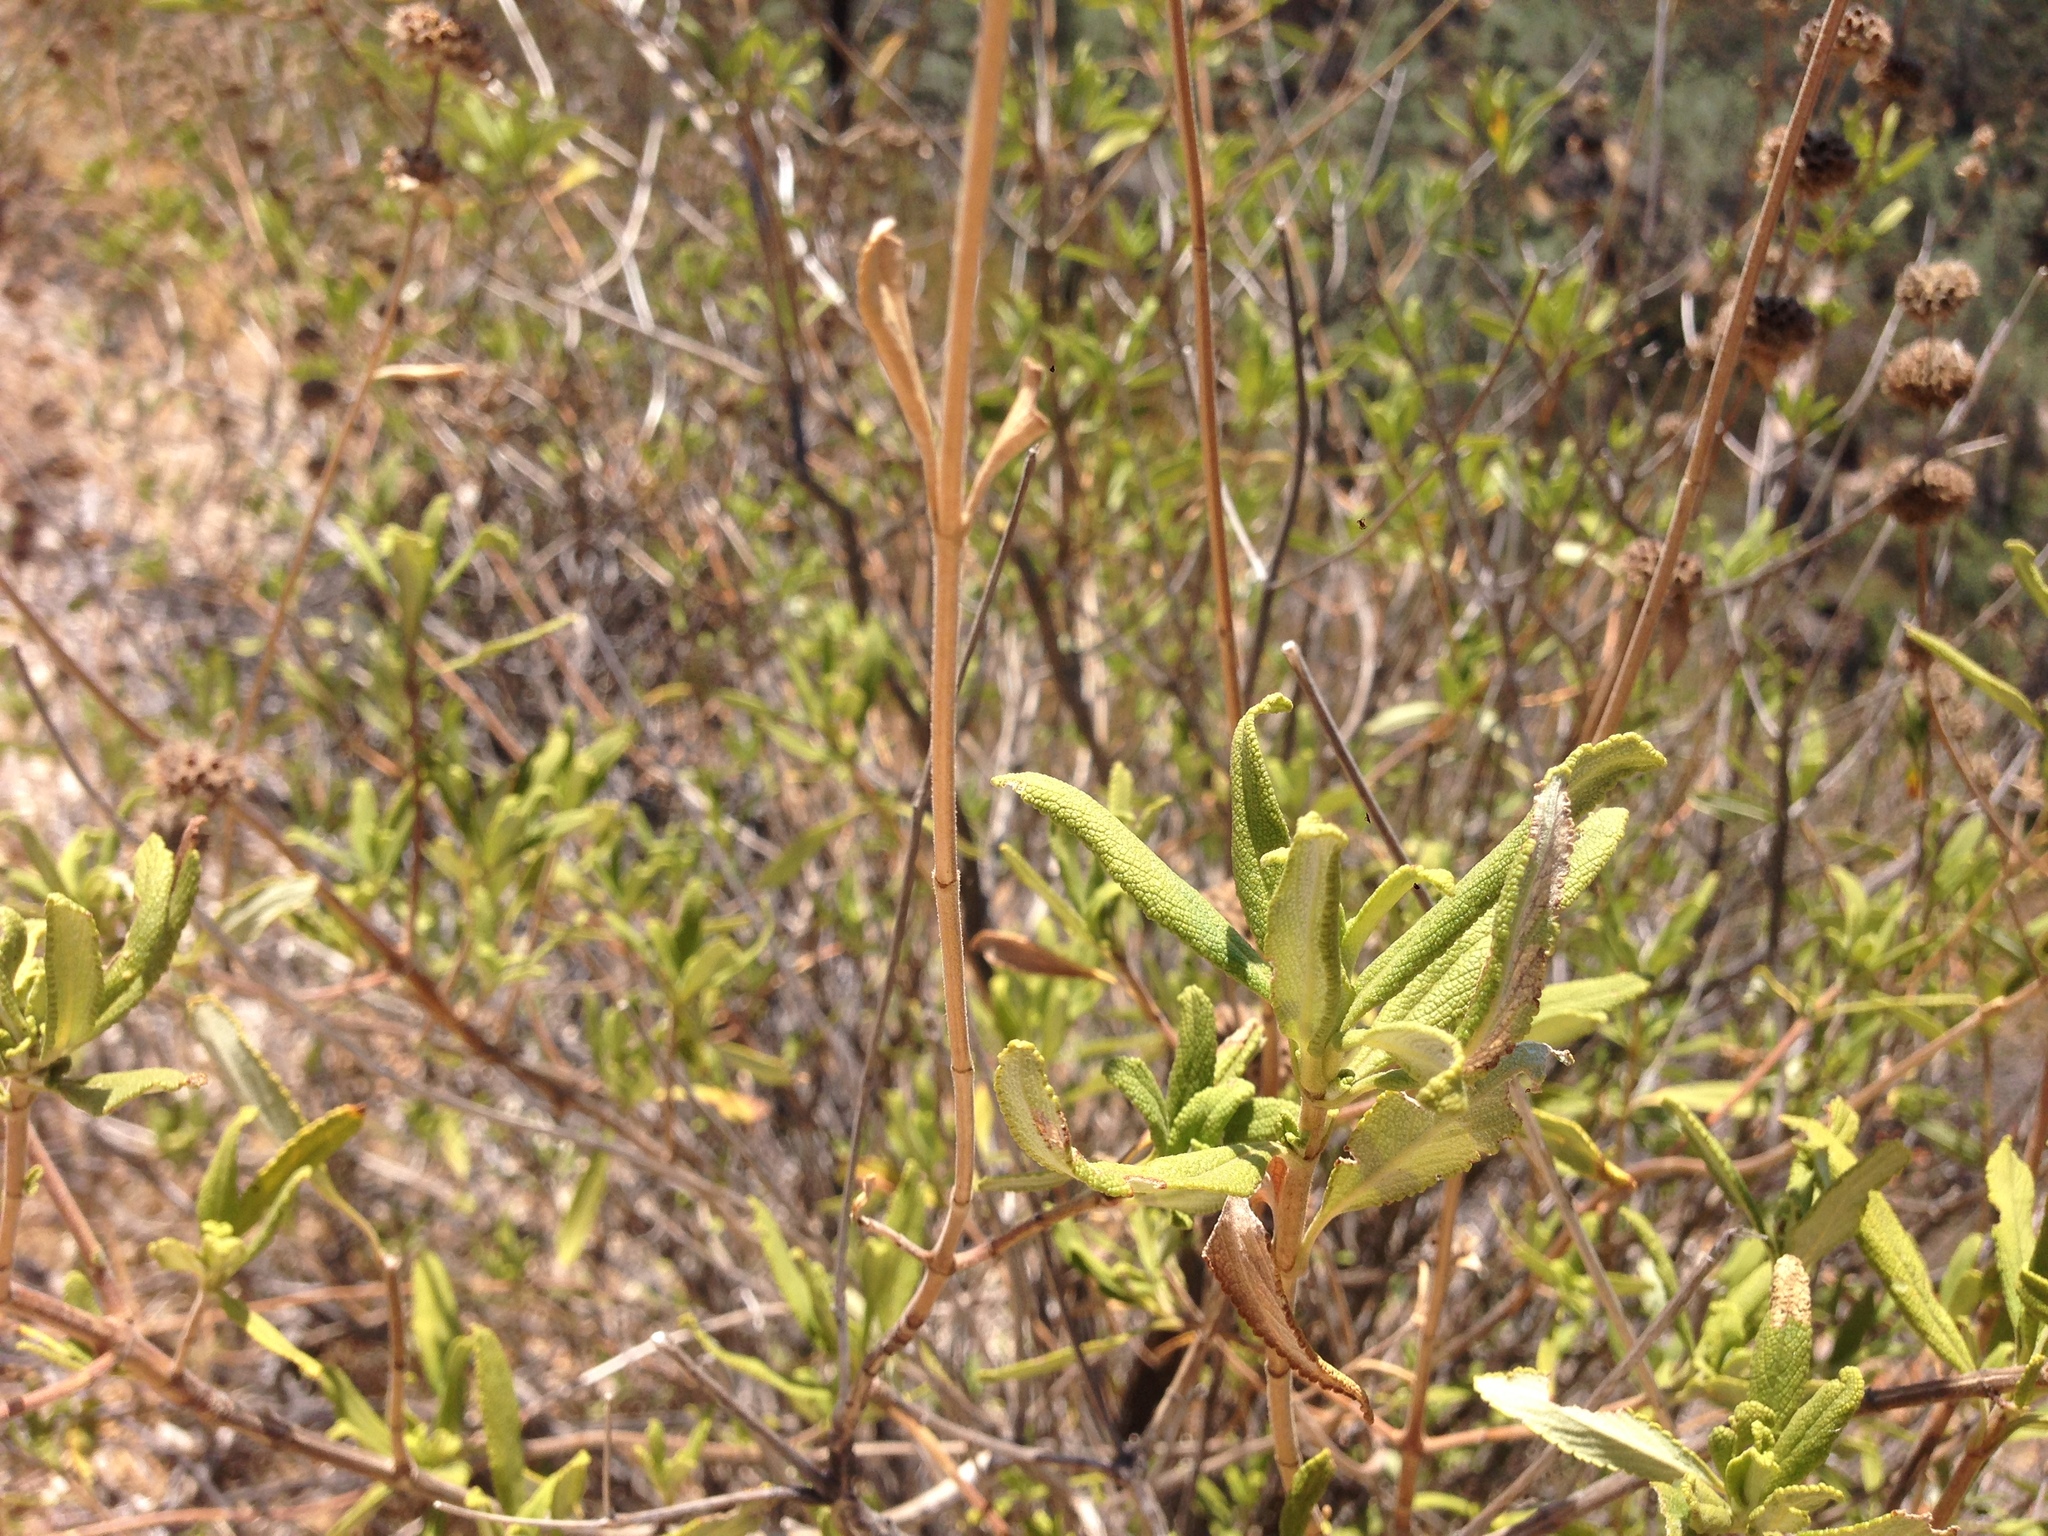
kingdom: Plantae
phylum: Tracheophyta
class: Magnoliopsida
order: Lamiales
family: Lamiaceae
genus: Salvia
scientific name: Salvia mellifera
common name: Black sage
